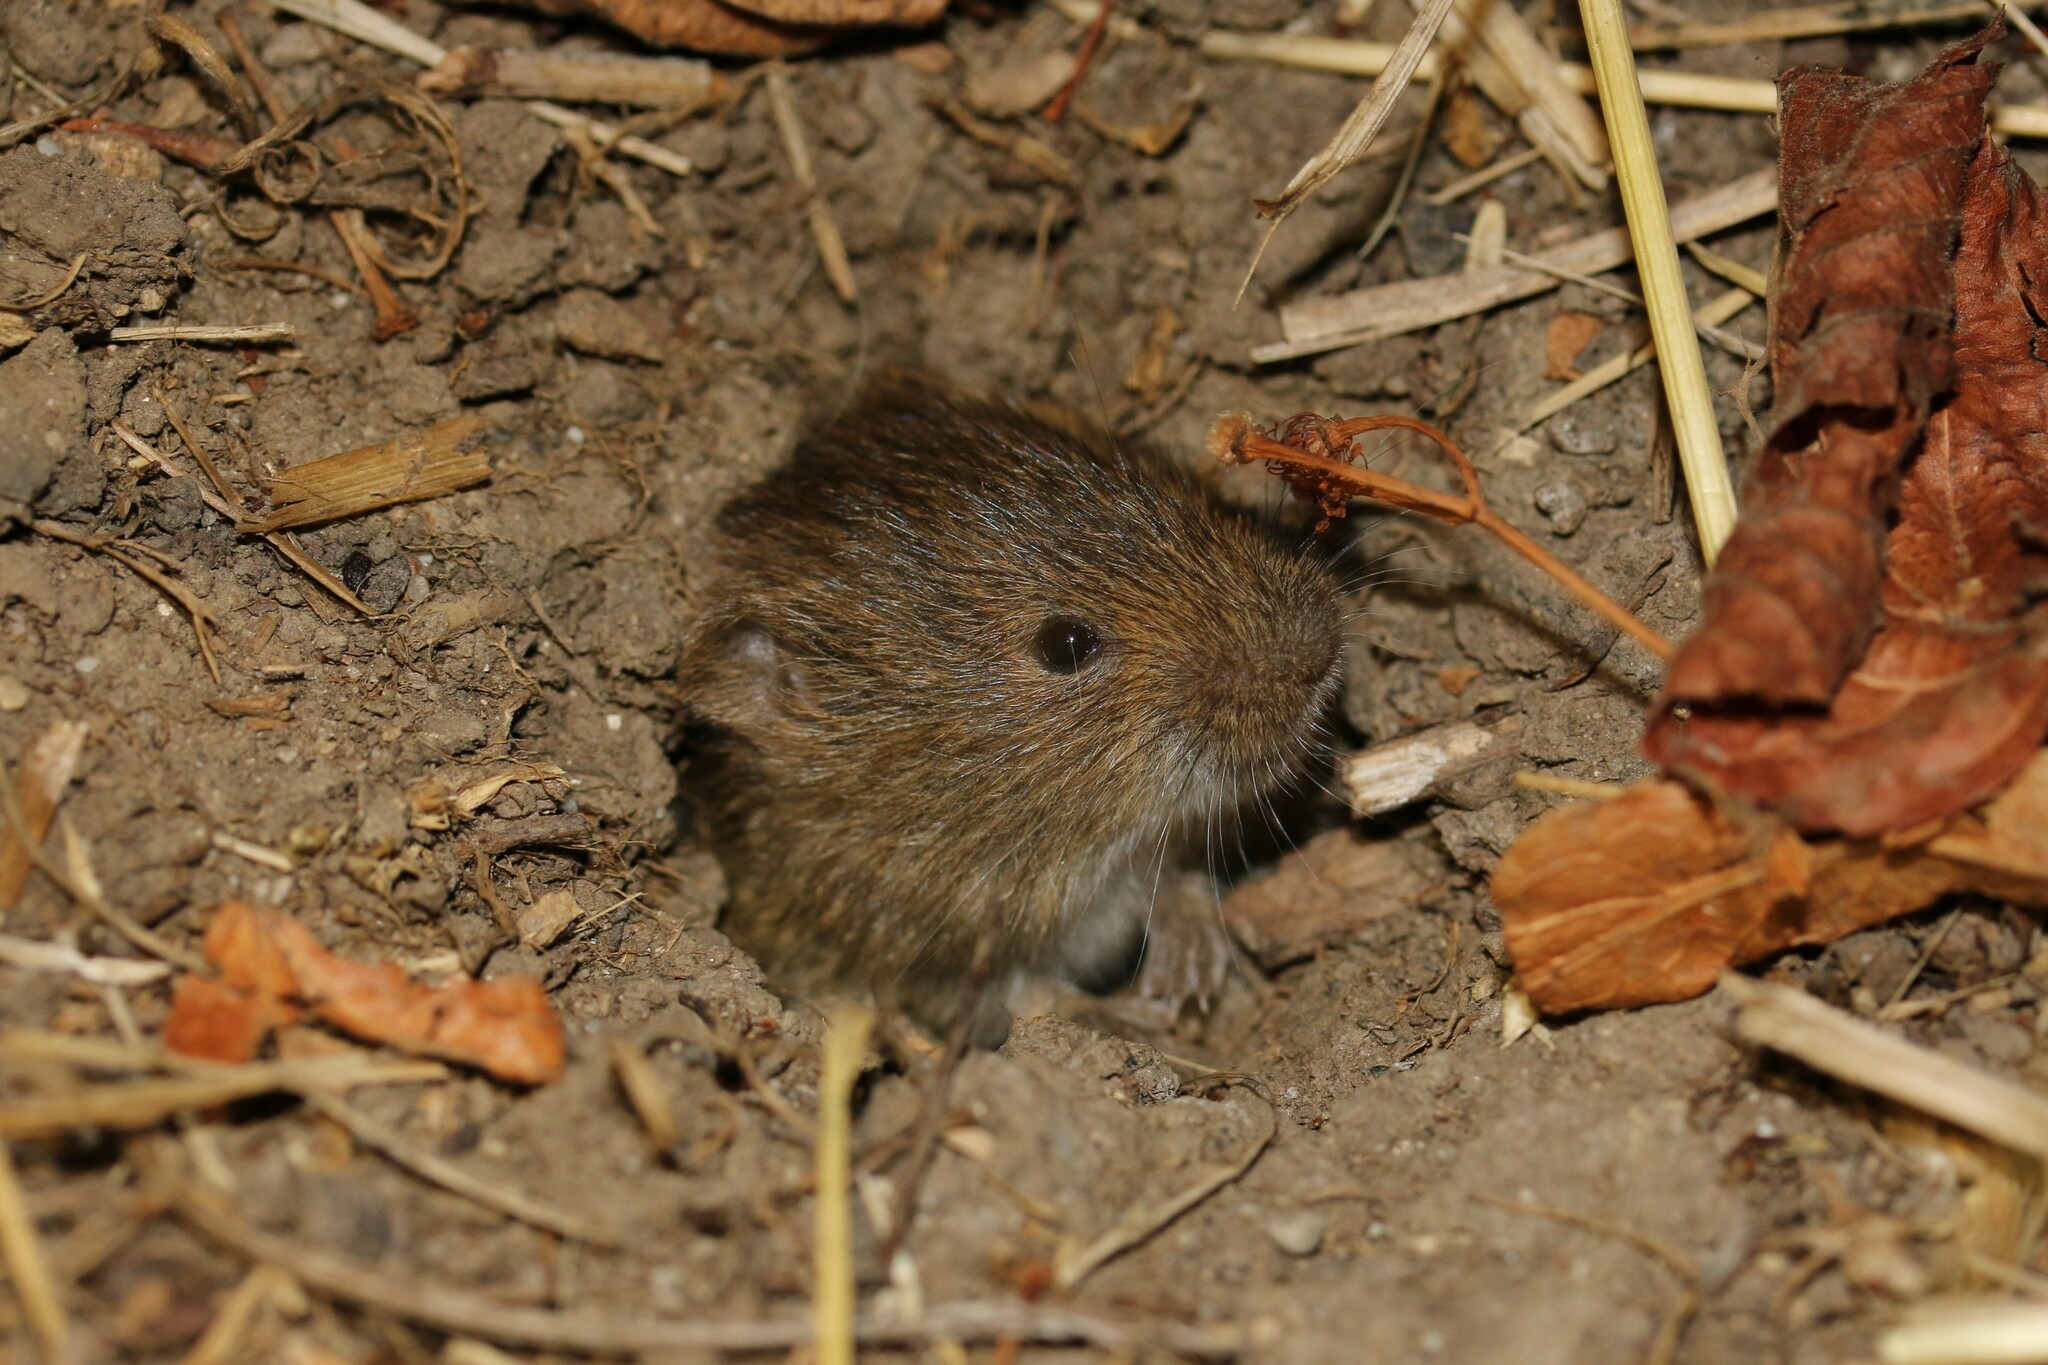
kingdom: Animalia
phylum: Chordata
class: Mammalia
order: Rodentia
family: Cricetidae
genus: Microtus
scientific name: Microtus arvalis
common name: Common vole
